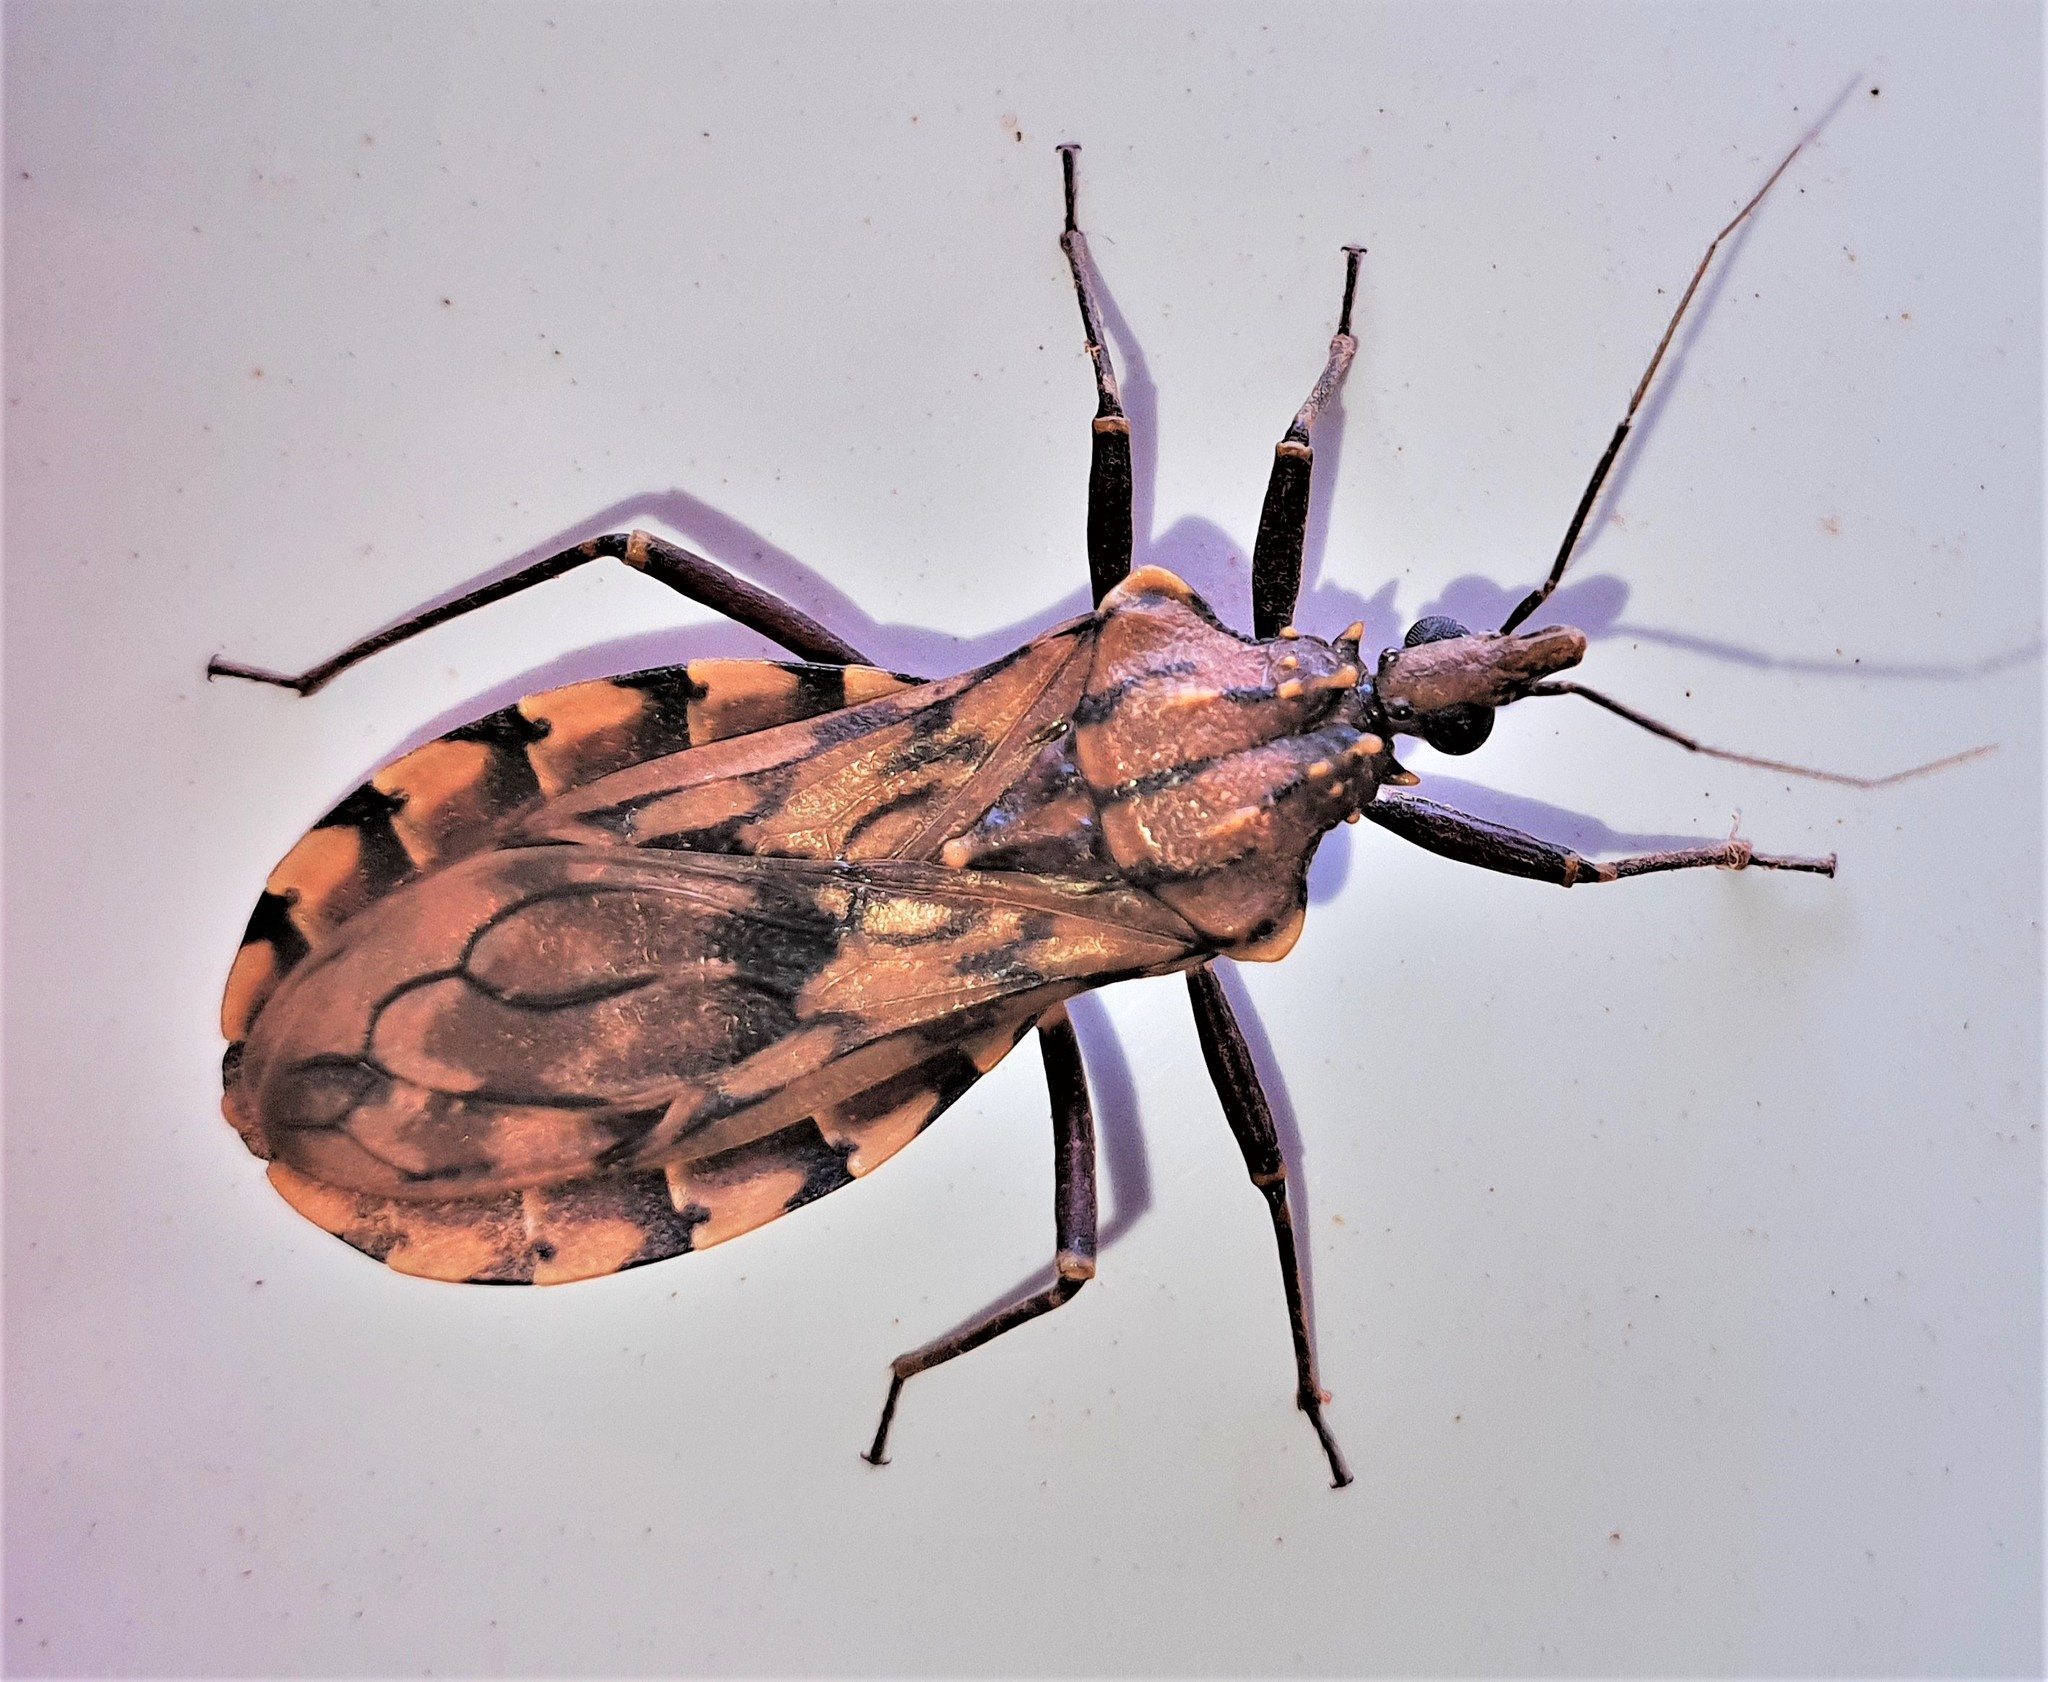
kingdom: Animalia
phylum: Arthropoda
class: Insecta
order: Hemiptera
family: Reduviidae
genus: Panstrongylus
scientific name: Panstrongylus lignarius
